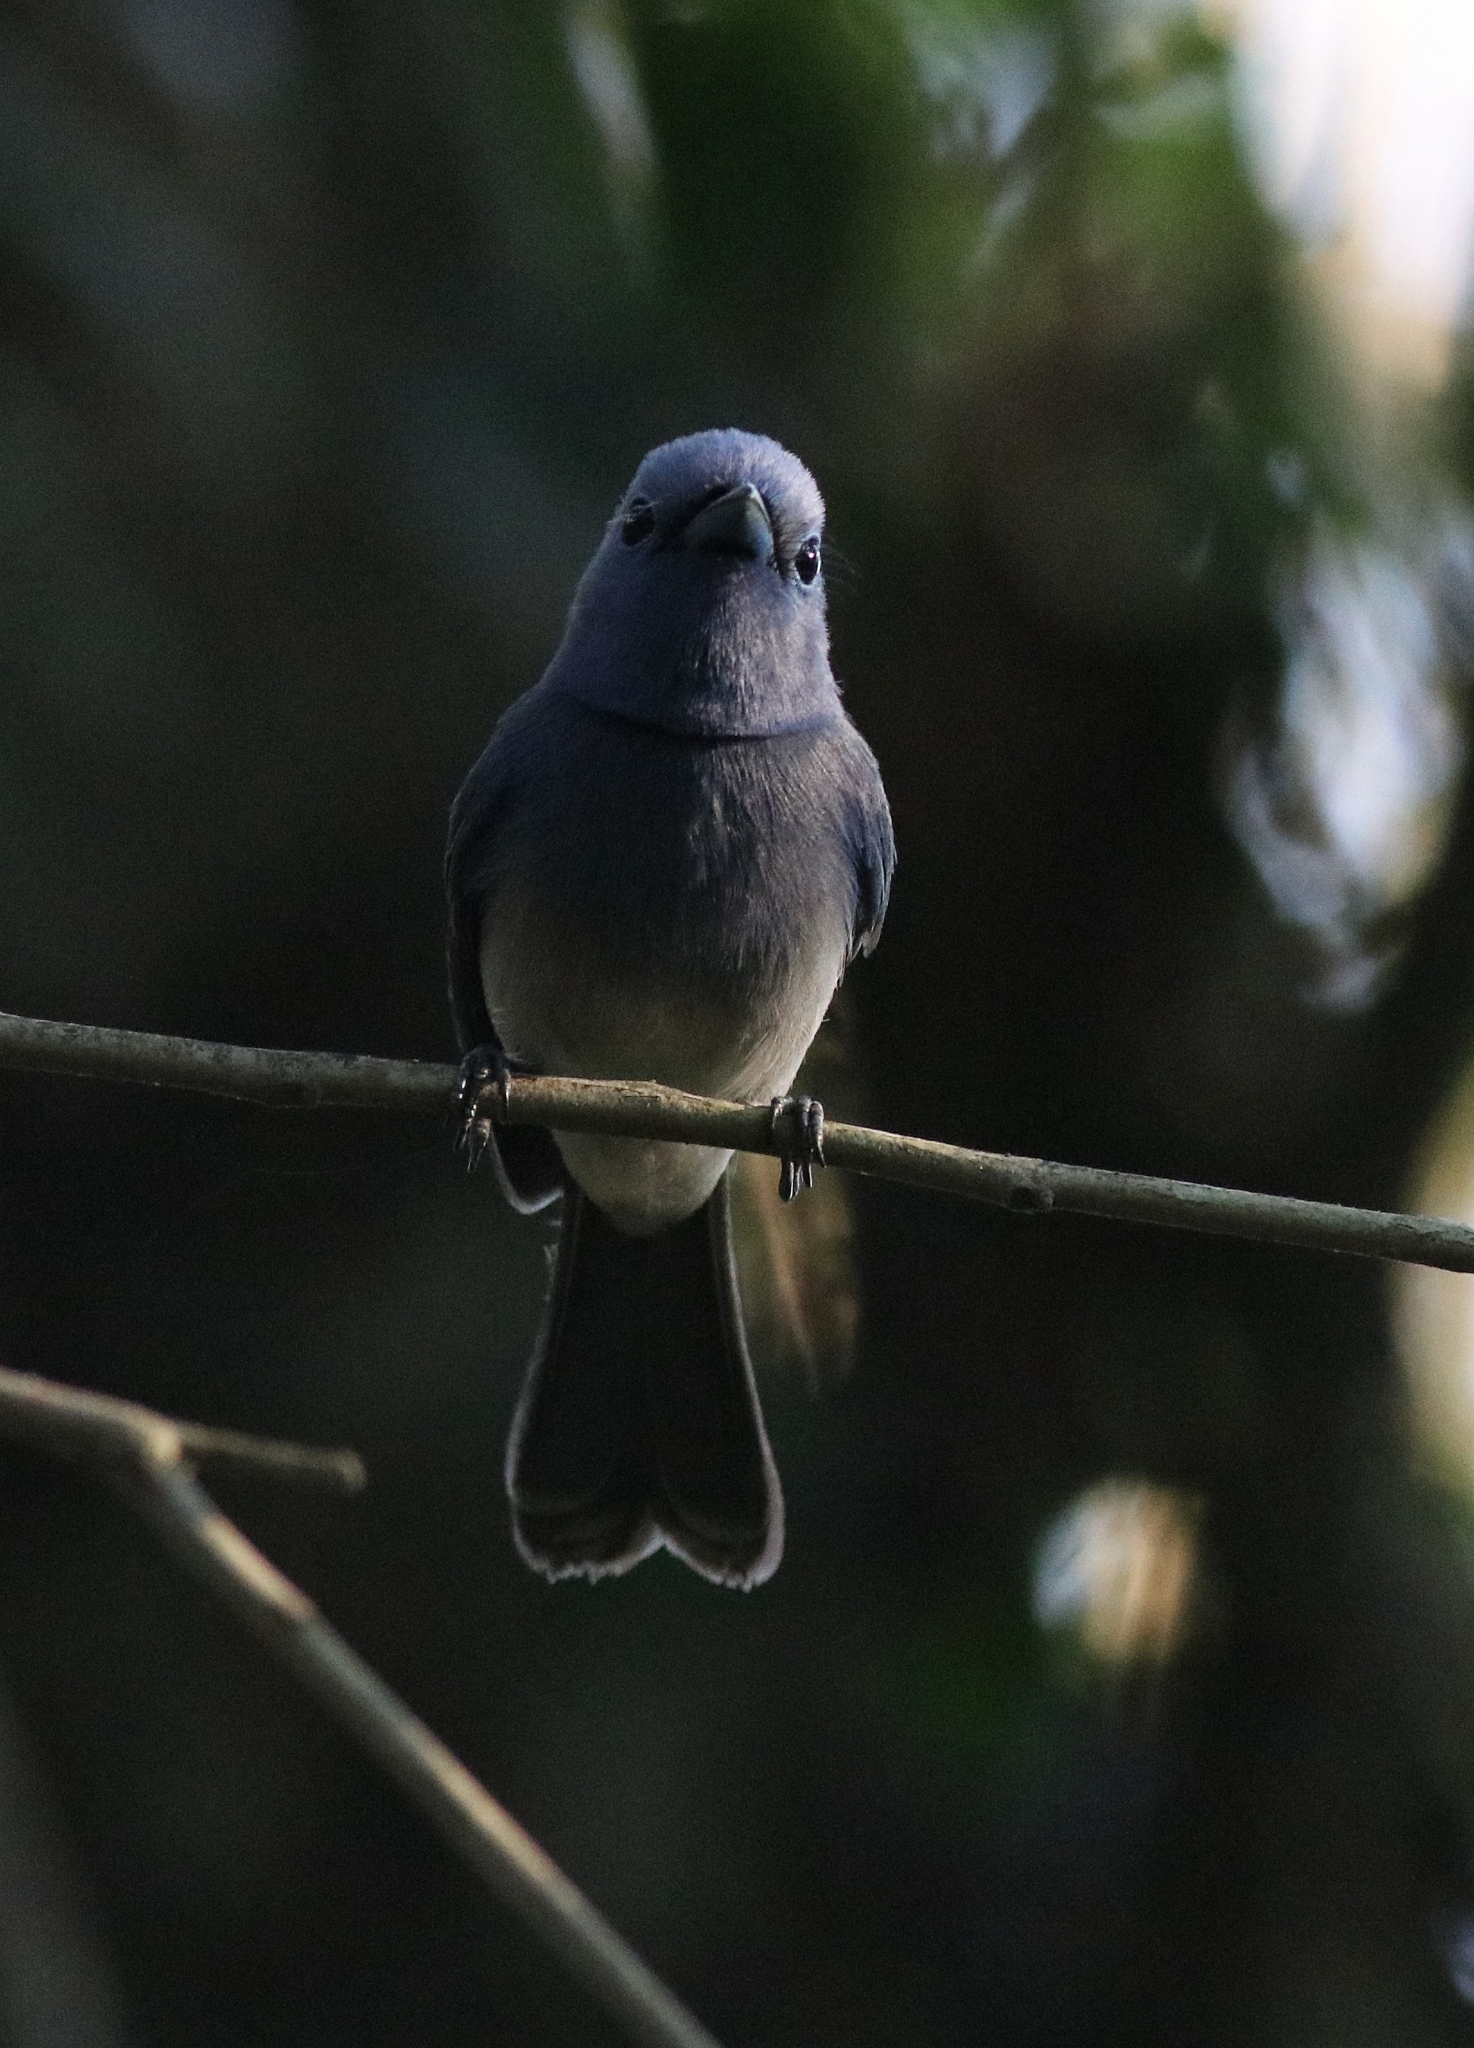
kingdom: Animalia
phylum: Chordata
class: Aves
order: Passeriformes
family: Monarchidae
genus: Hypothymis
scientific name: Hypothymis azurea
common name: Black-naped monarch
